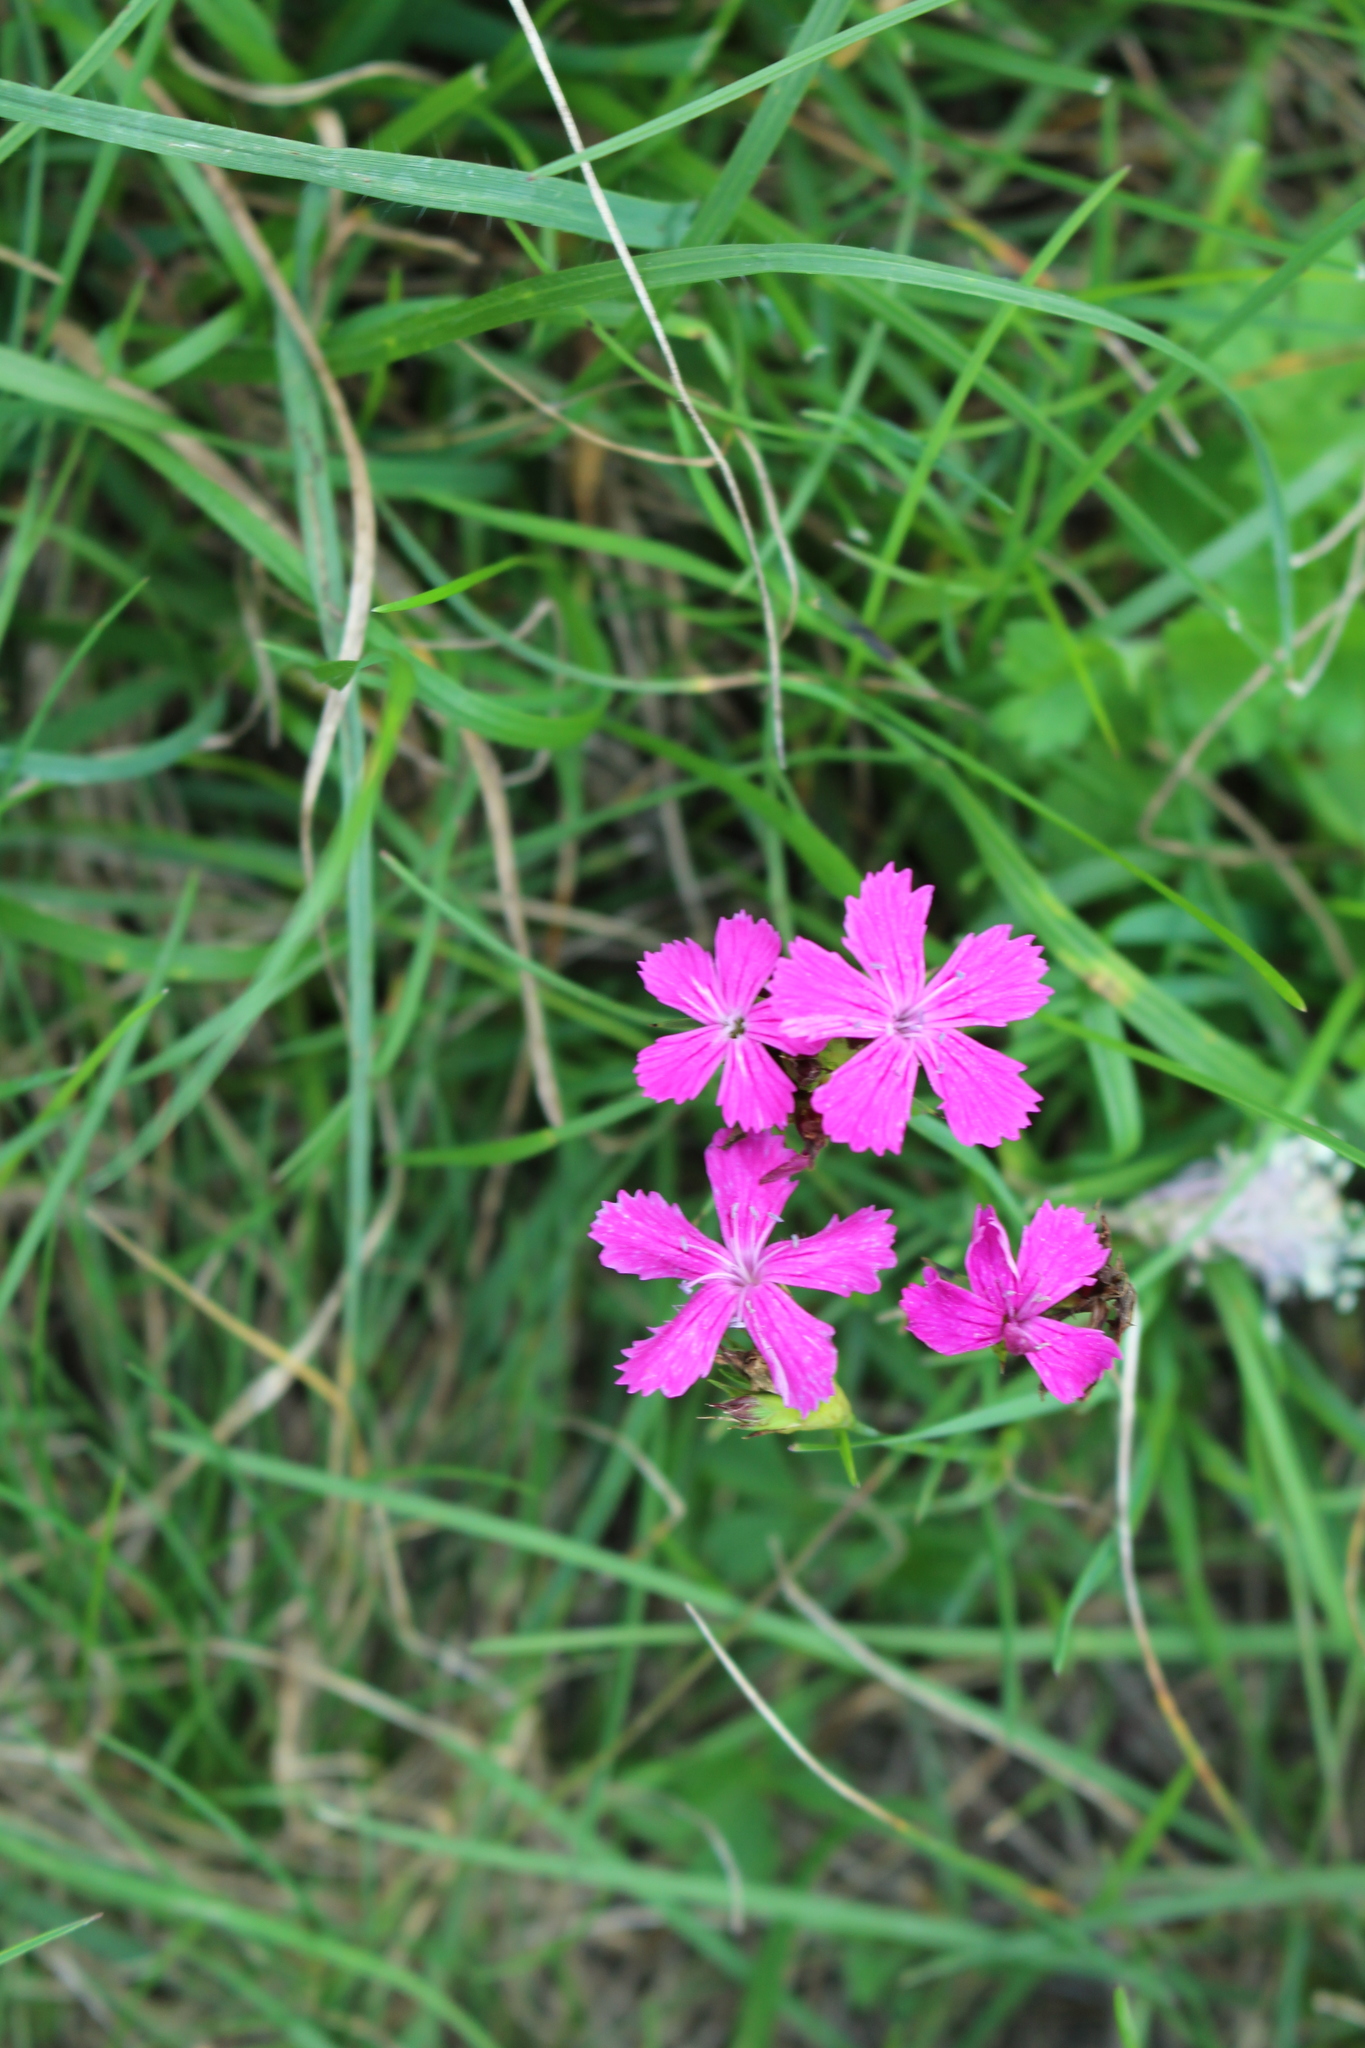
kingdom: Plantae
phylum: Tracheophyta
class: Magnoliopsida
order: Caryophyllales
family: Caryophyllaceae
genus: Dianthus
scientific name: Dianthus carthusianorum
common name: Carthusian pink
